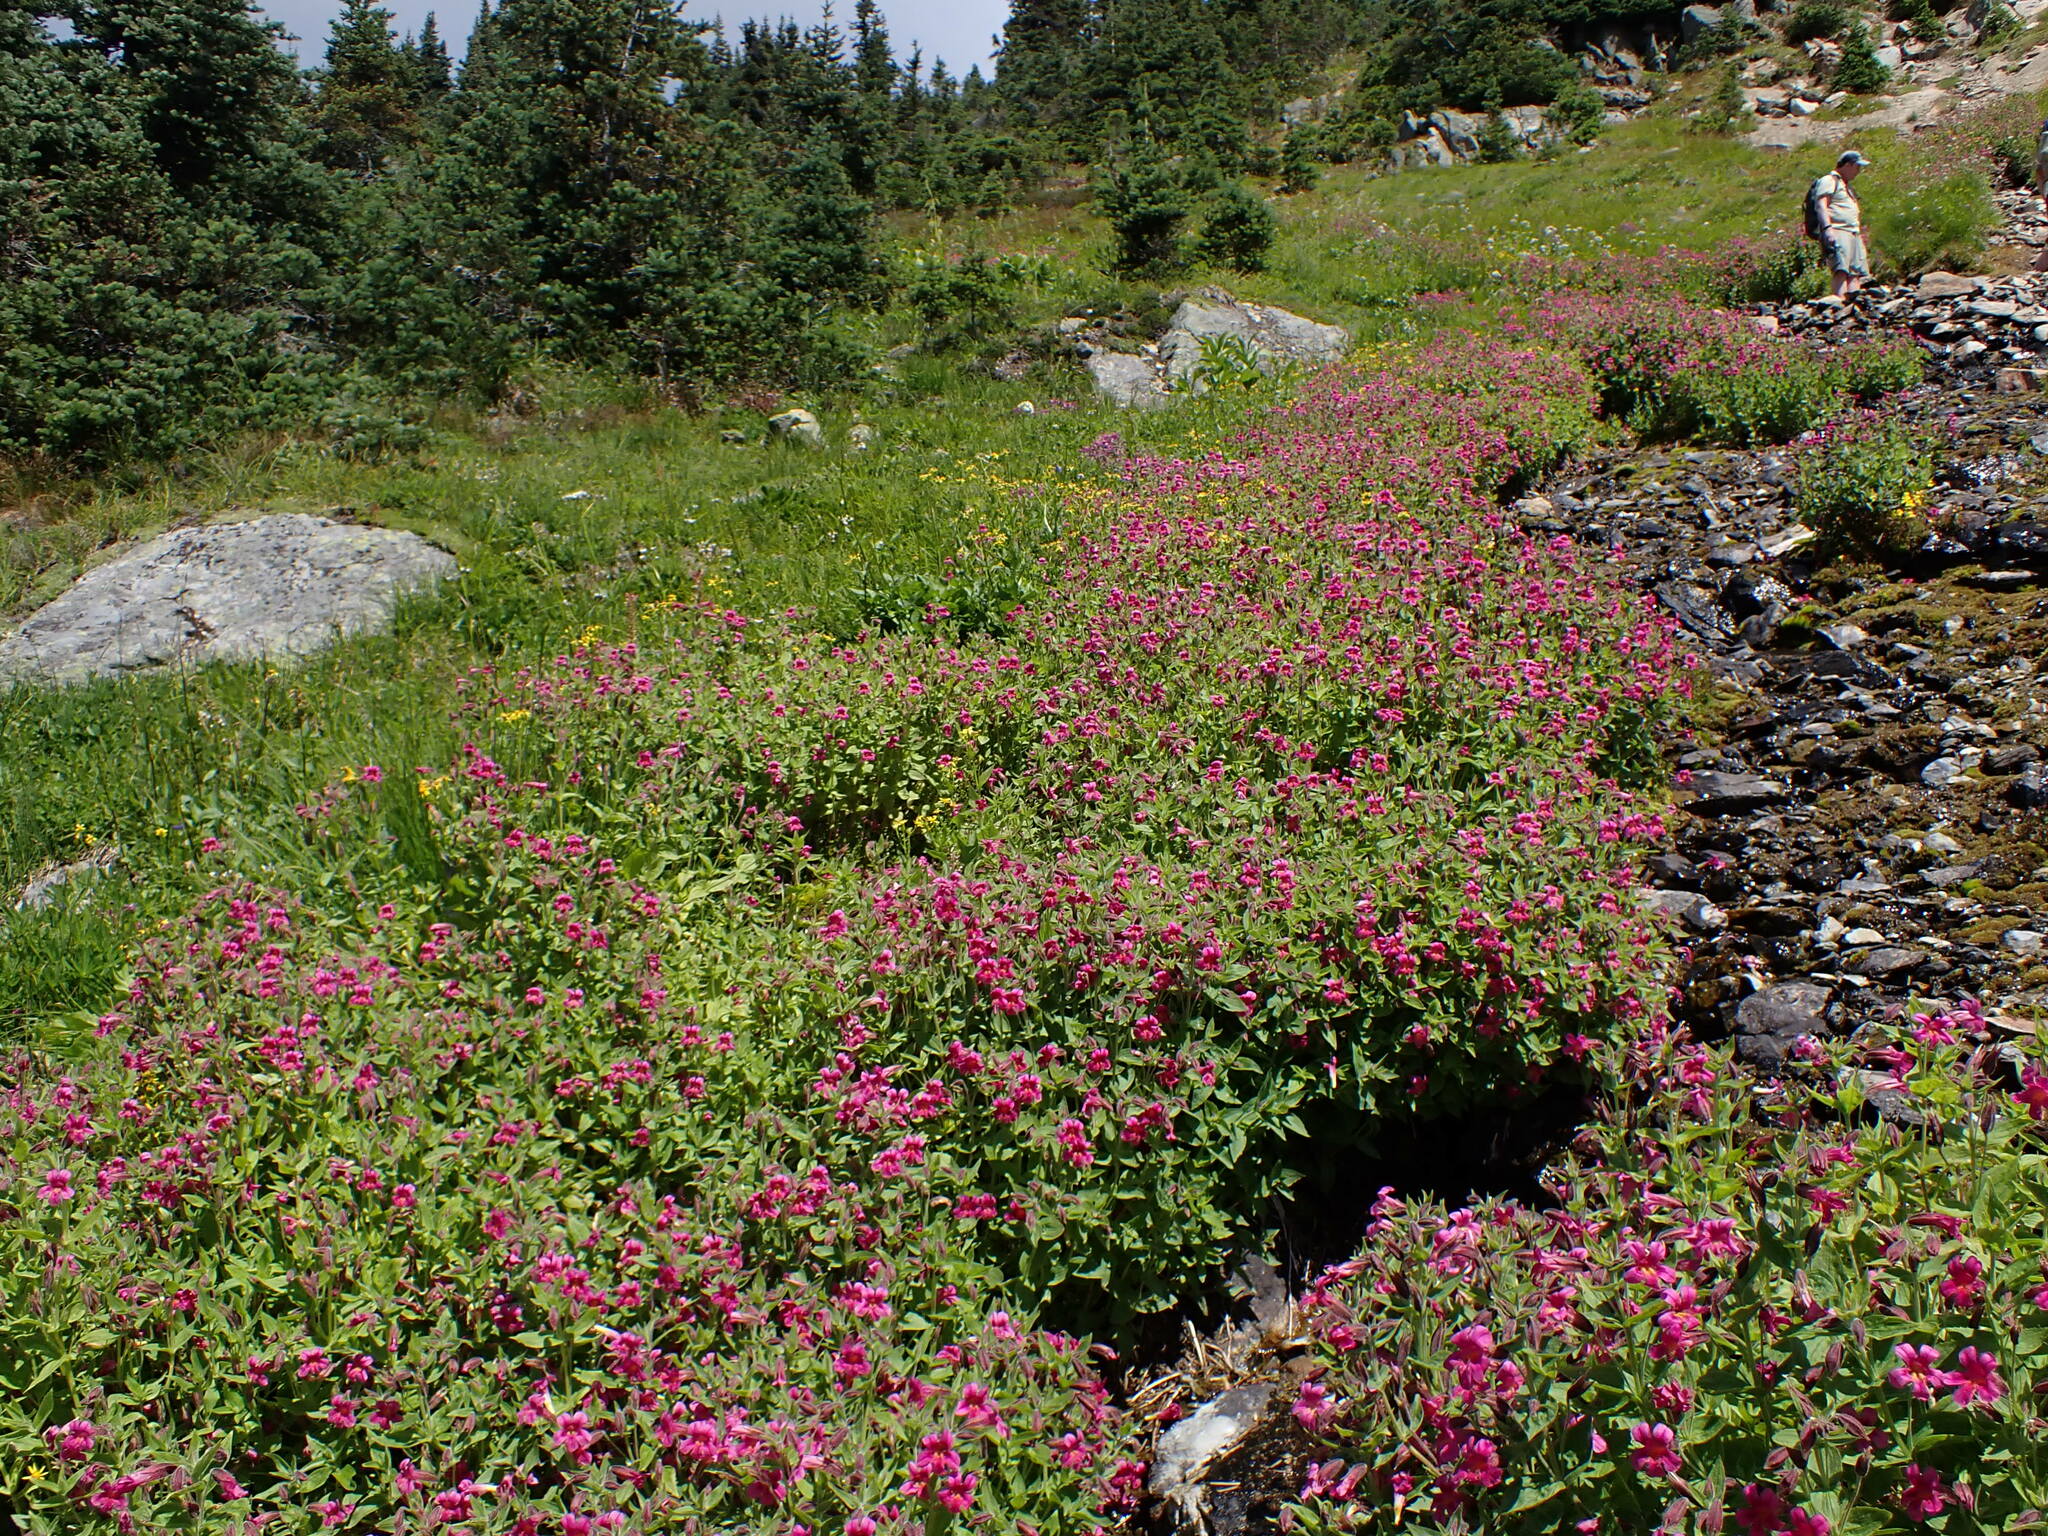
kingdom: Plantae
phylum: Tracheophyta
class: Magnoliopsida
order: Lamiales
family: Phrymaceae
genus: Erythranthe
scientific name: Erythranthe lewisii
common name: Lewis's monkey-flower
